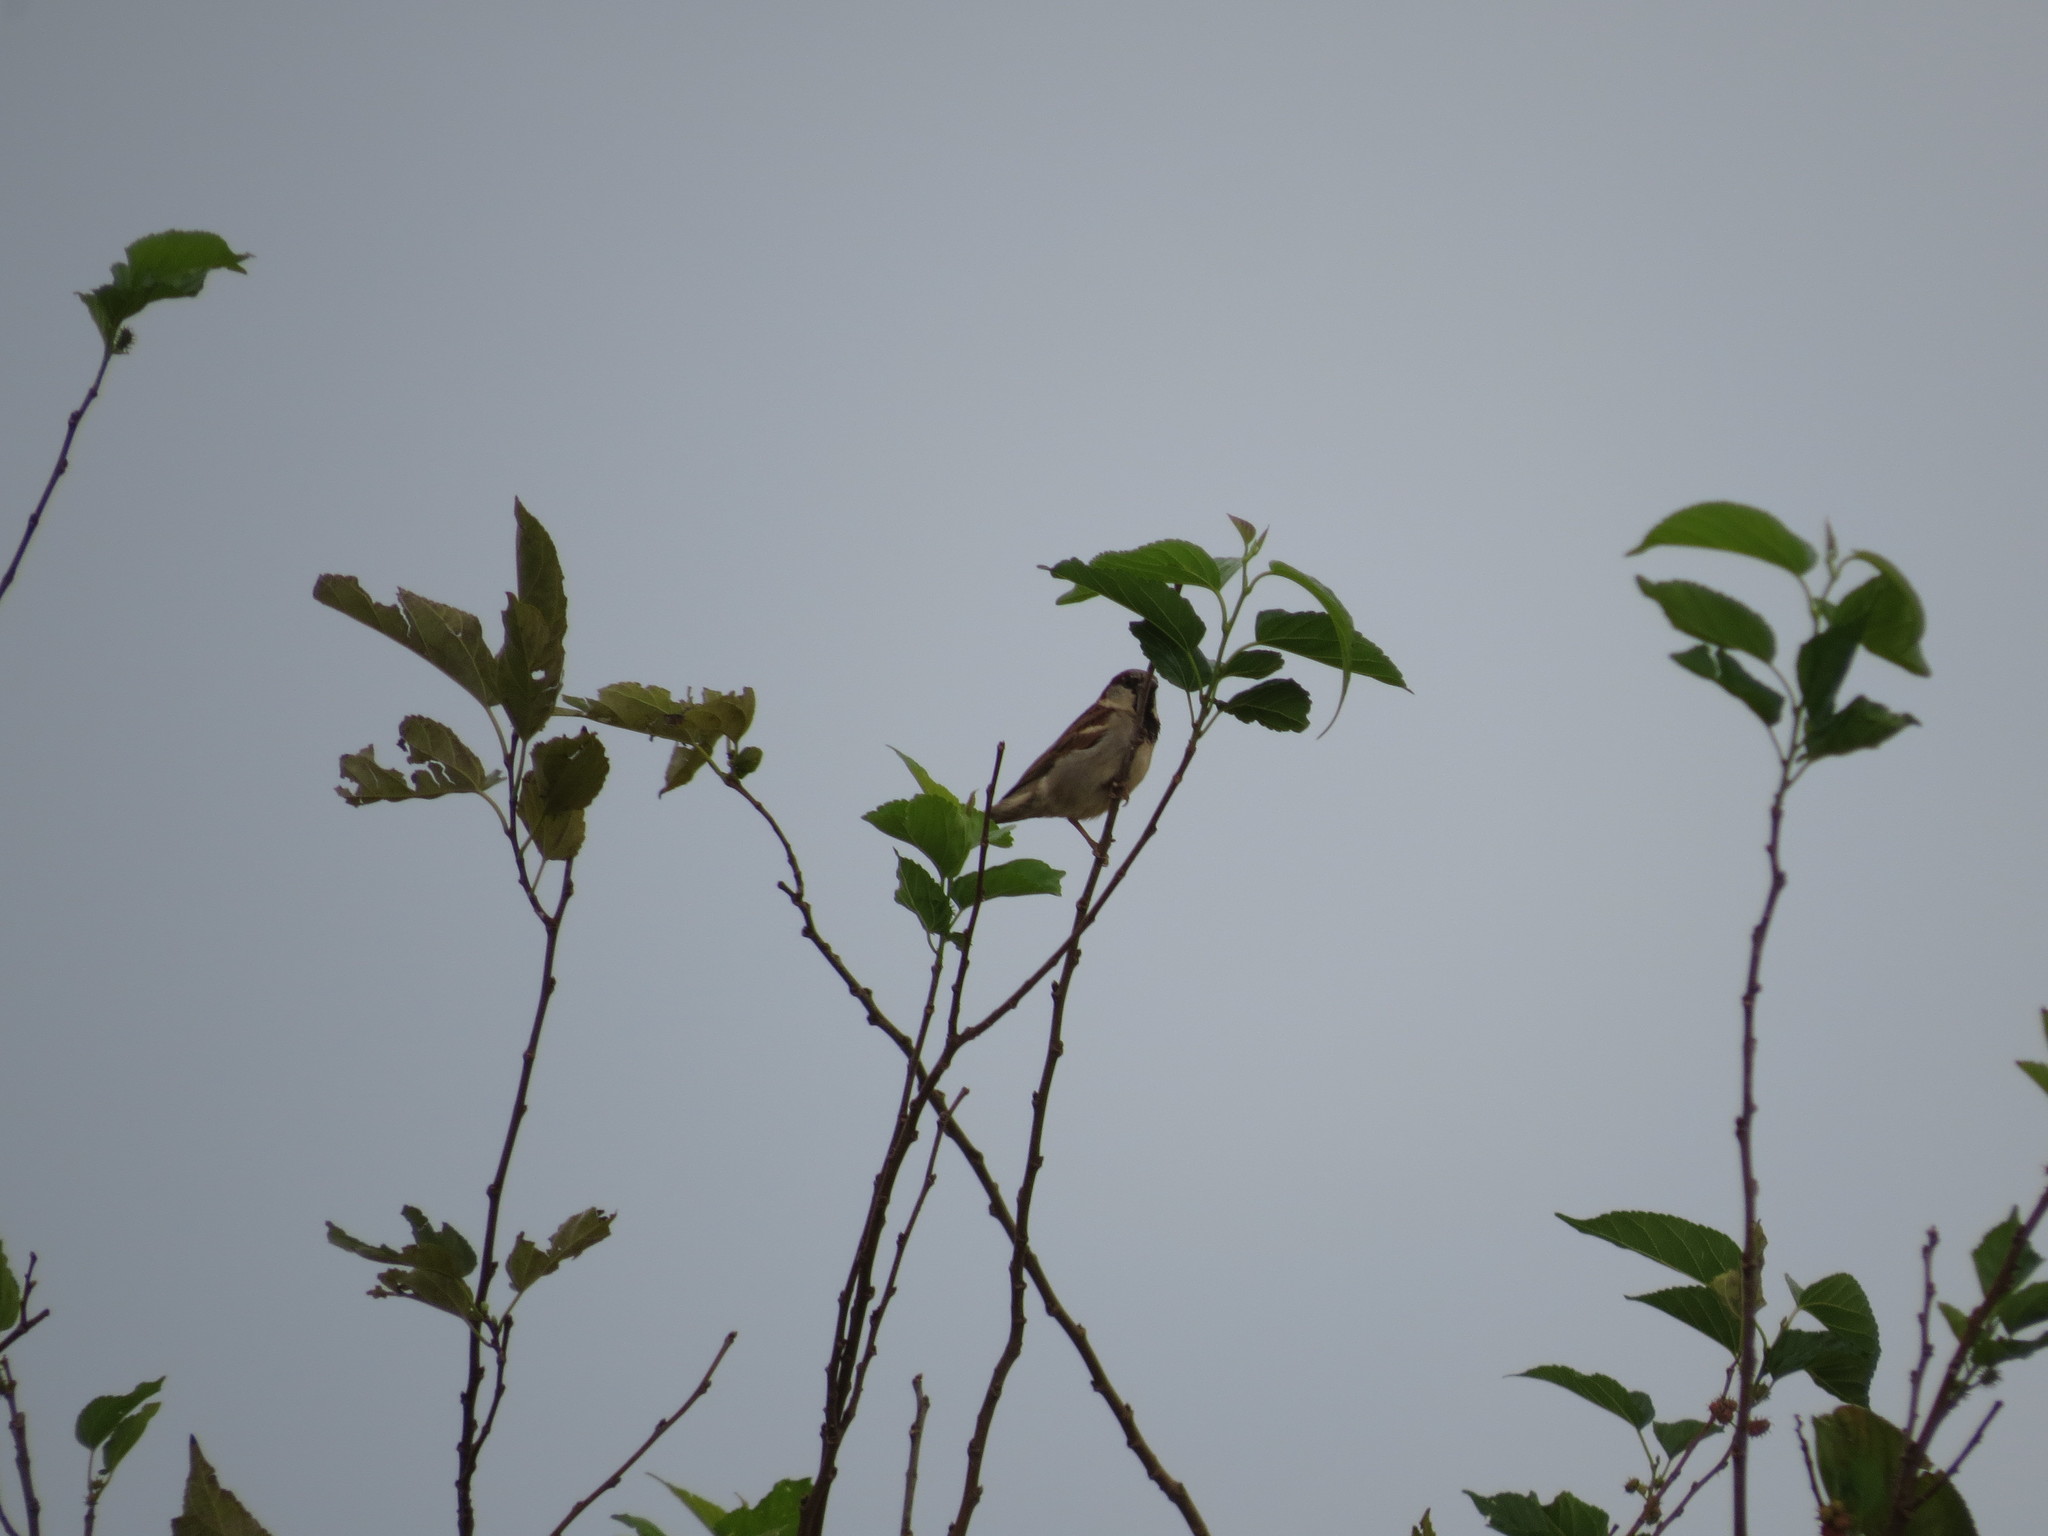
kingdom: Animalia
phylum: Chordata
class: Aves
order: Passeriformes
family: Passeridae
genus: Passer
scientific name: Passer domesticus
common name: House sparrow
